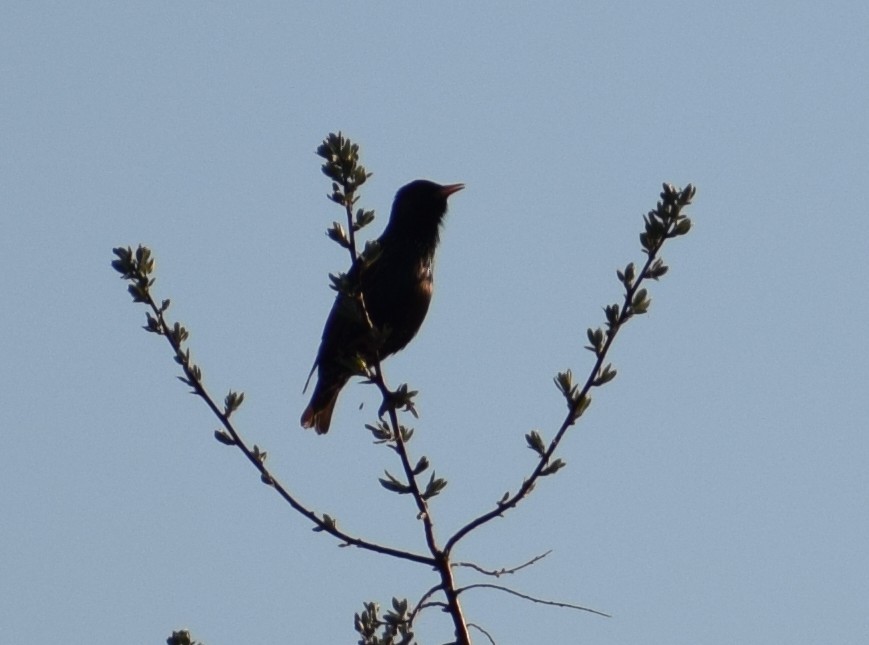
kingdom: Animalia
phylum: Chordata
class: Aves
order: Passeriformes
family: Sturnidae
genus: Sturnus
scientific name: Sturnus vulgaris
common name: Common starling
